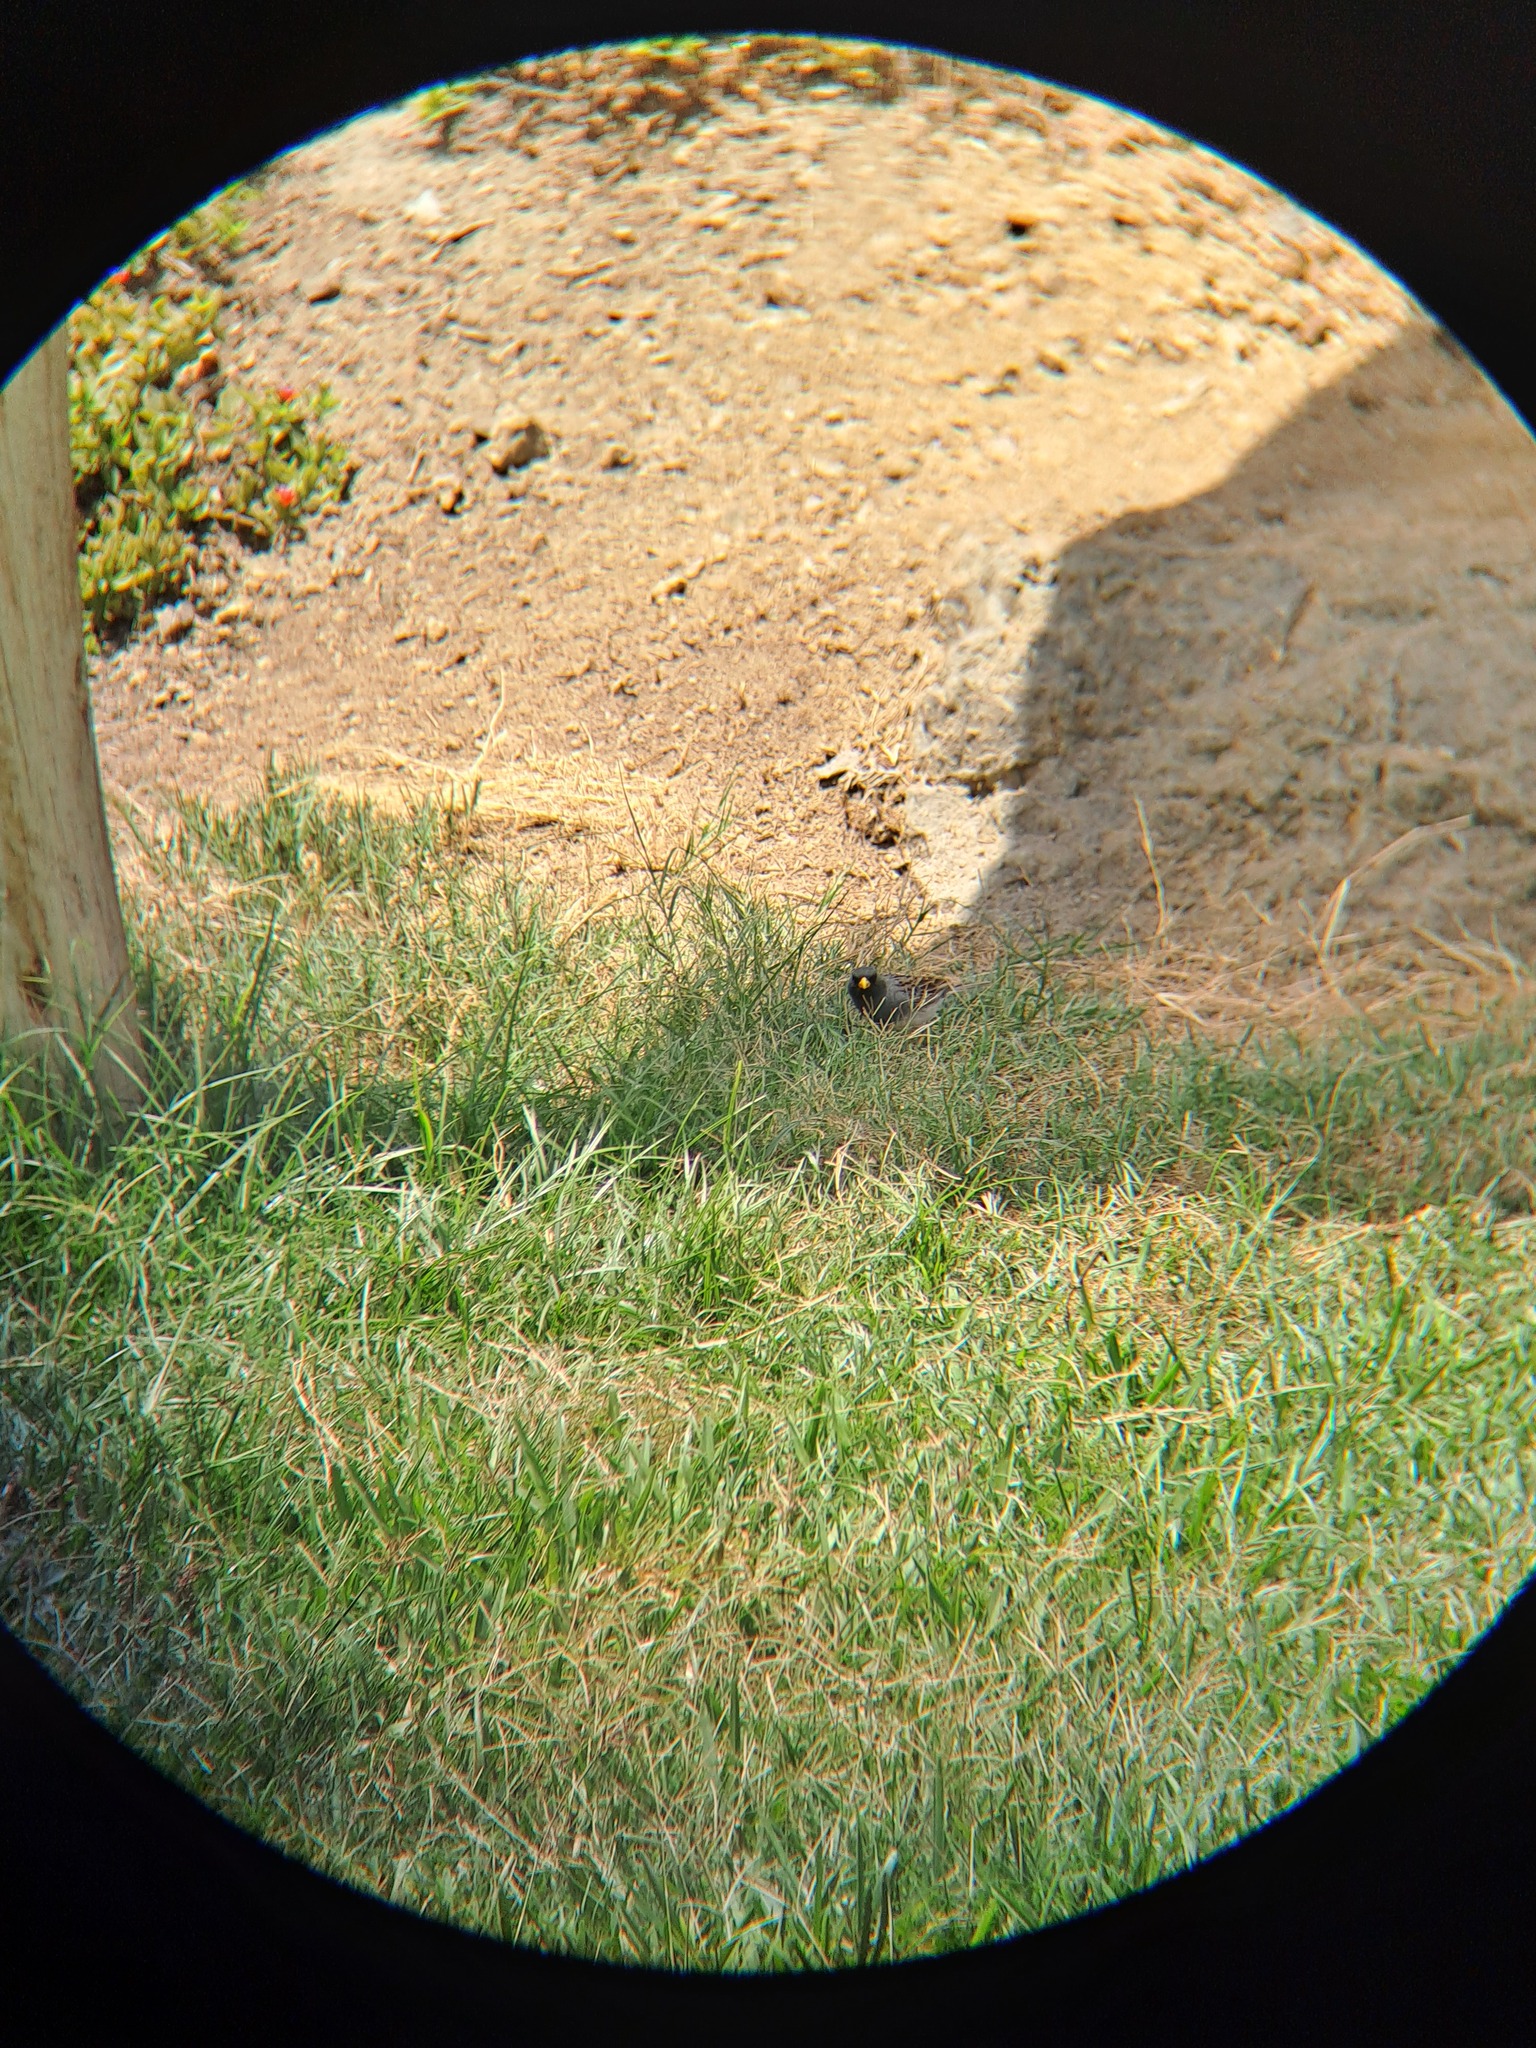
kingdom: Animalia
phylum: Chordata
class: Aves
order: Passeriformes
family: Thraupidae
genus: Catamenia
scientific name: Catamenia analis
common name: Band-tailed seedeater
